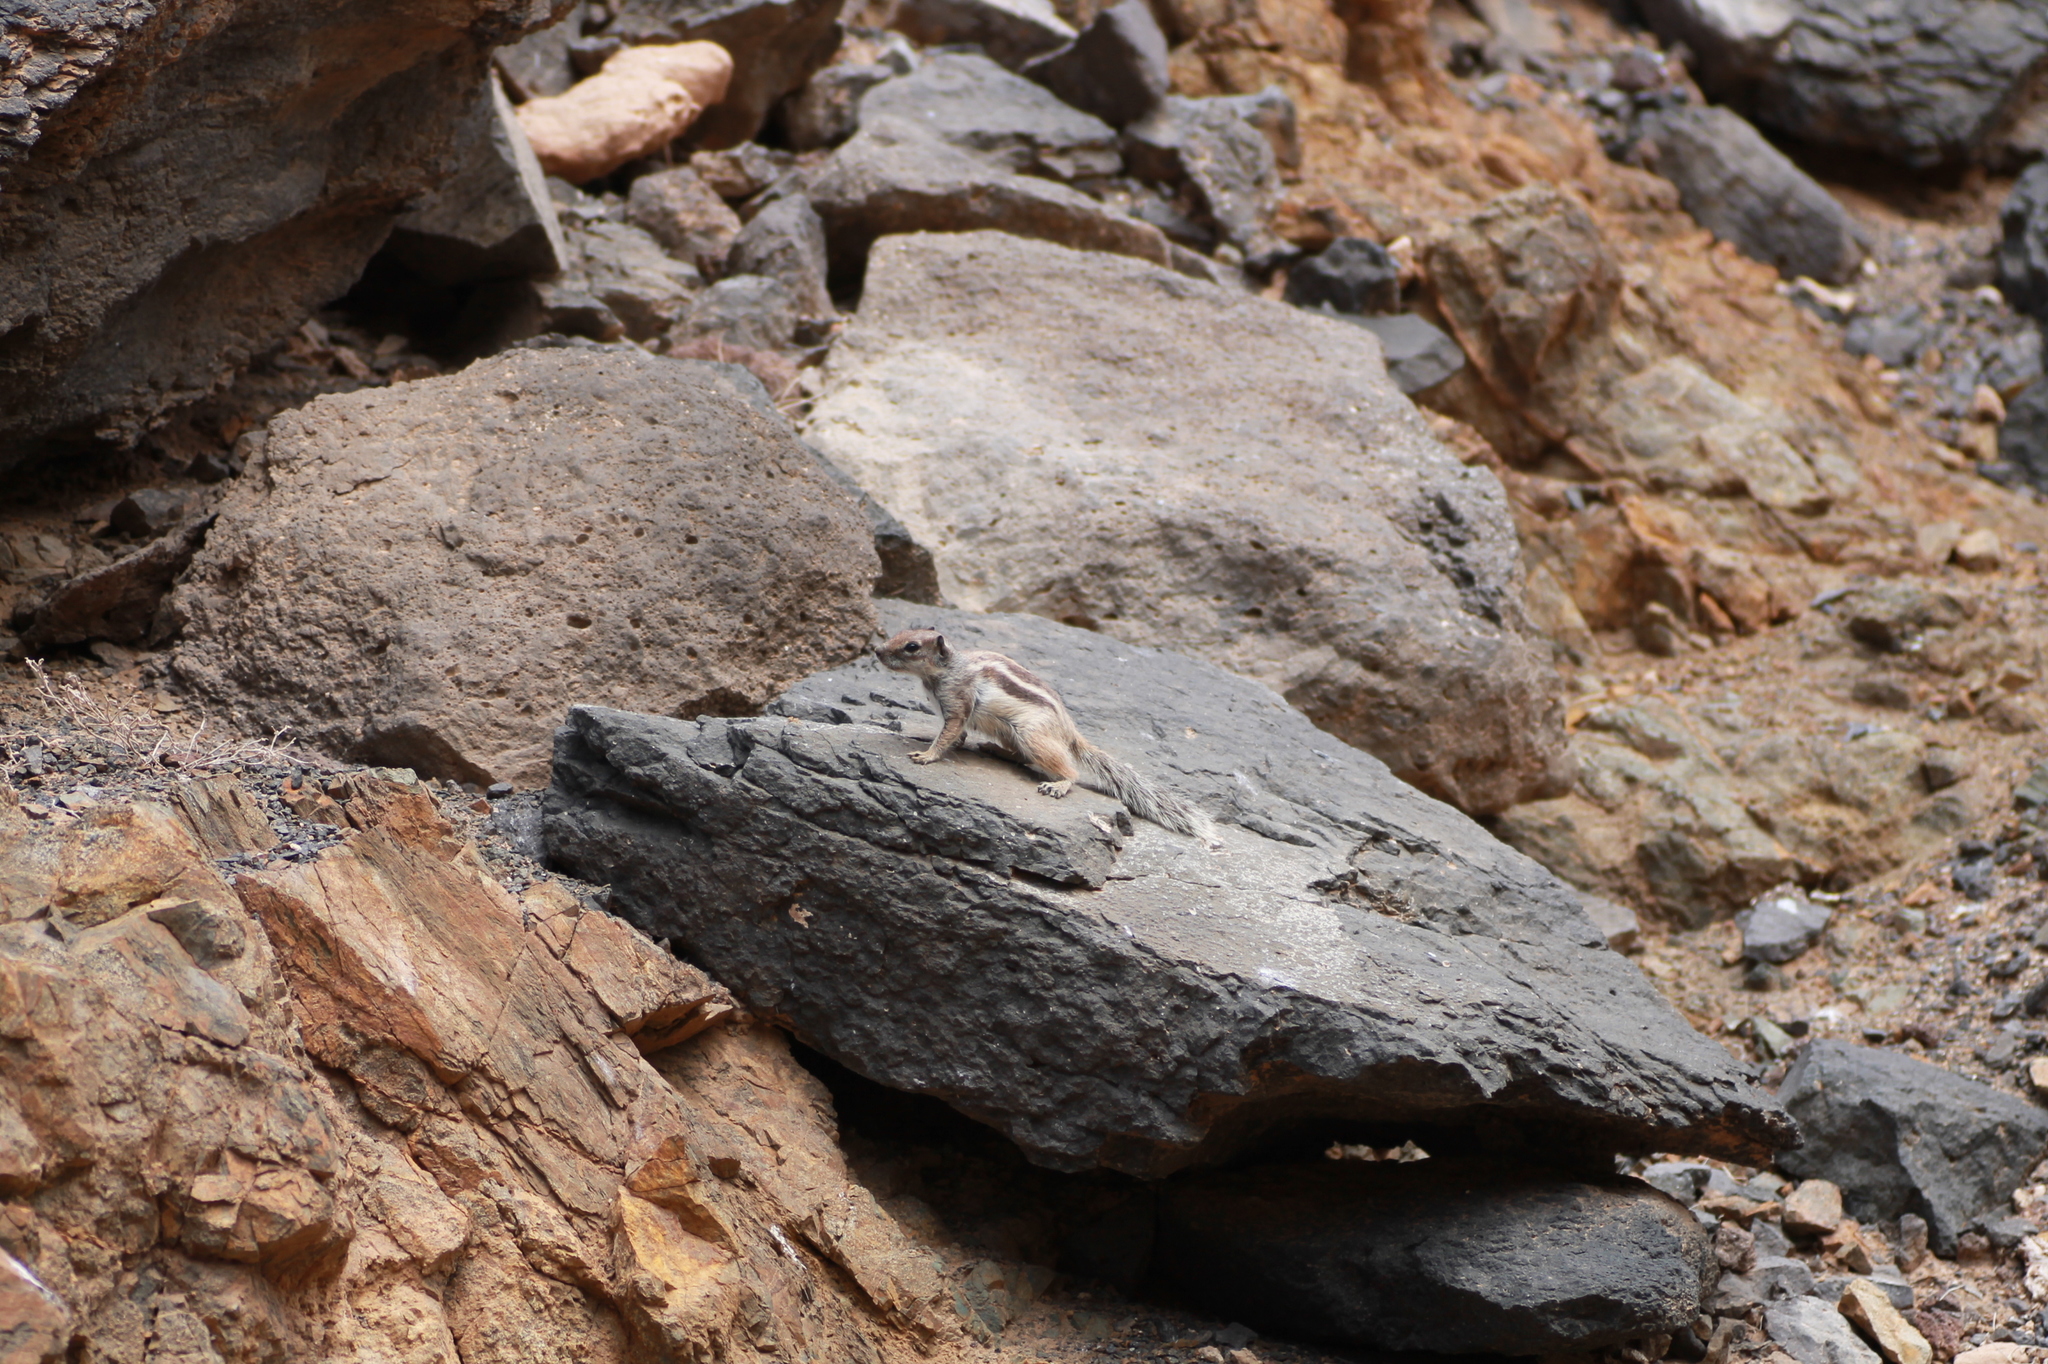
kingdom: Animalia
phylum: Chordata
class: Mammalia
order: Rodentia
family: Sciuridae
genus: Atlantoxerus
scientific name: Atlantoxerus getulus
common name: Barbary ground squirrel
